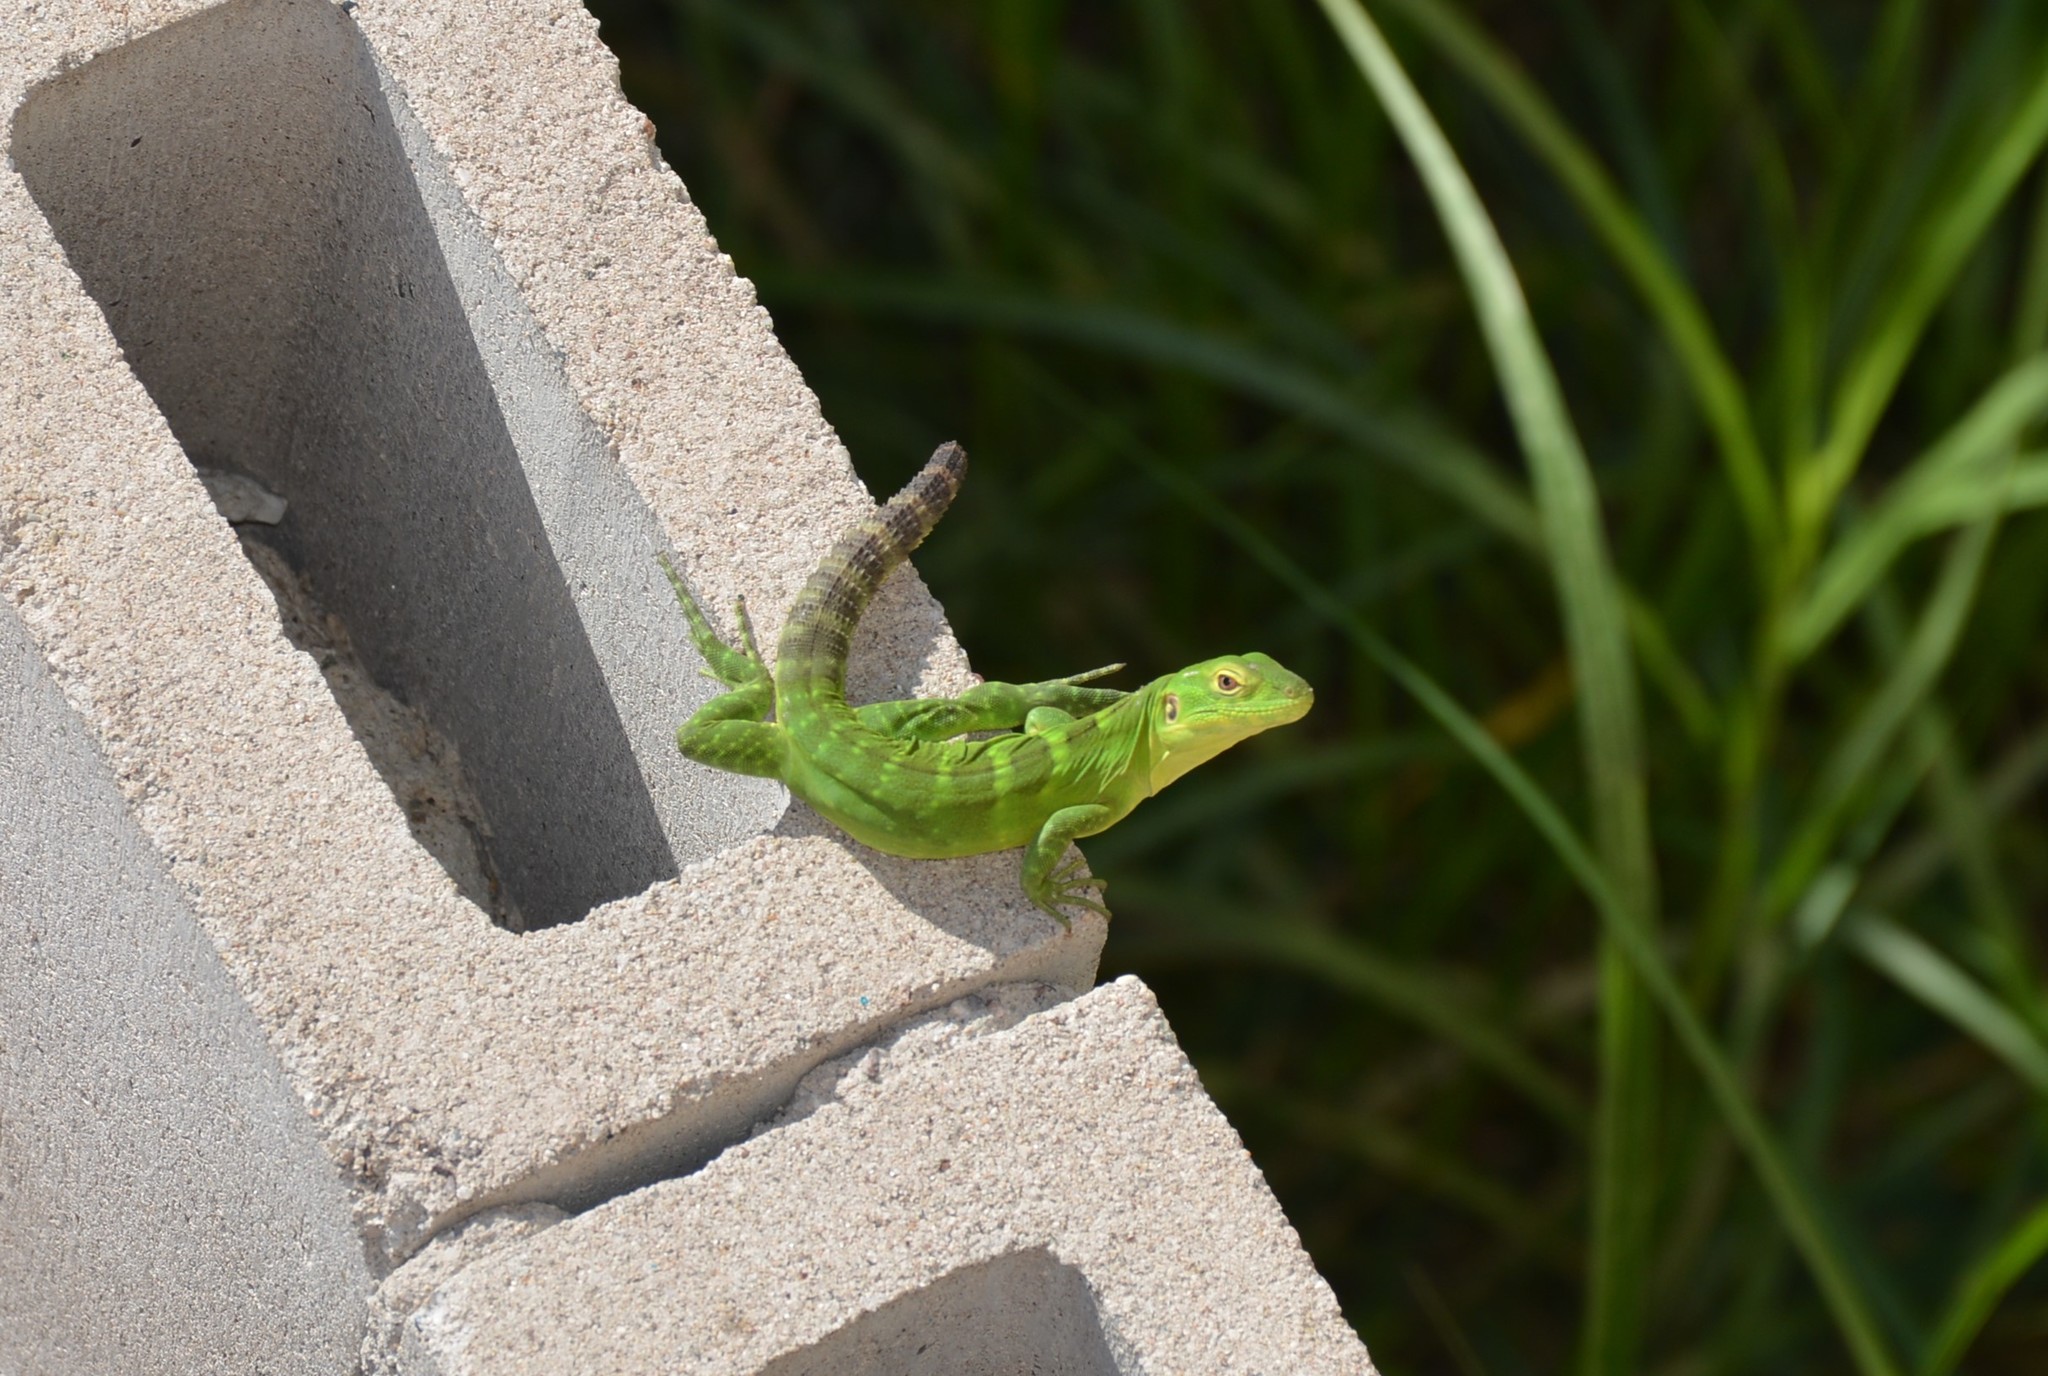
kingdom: Animalia
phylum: Chordata
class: Squamata
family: Iguanidae
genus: Ctenosaura
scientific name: Ctenosaura macrolopha
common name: Cape spinytail iguana
